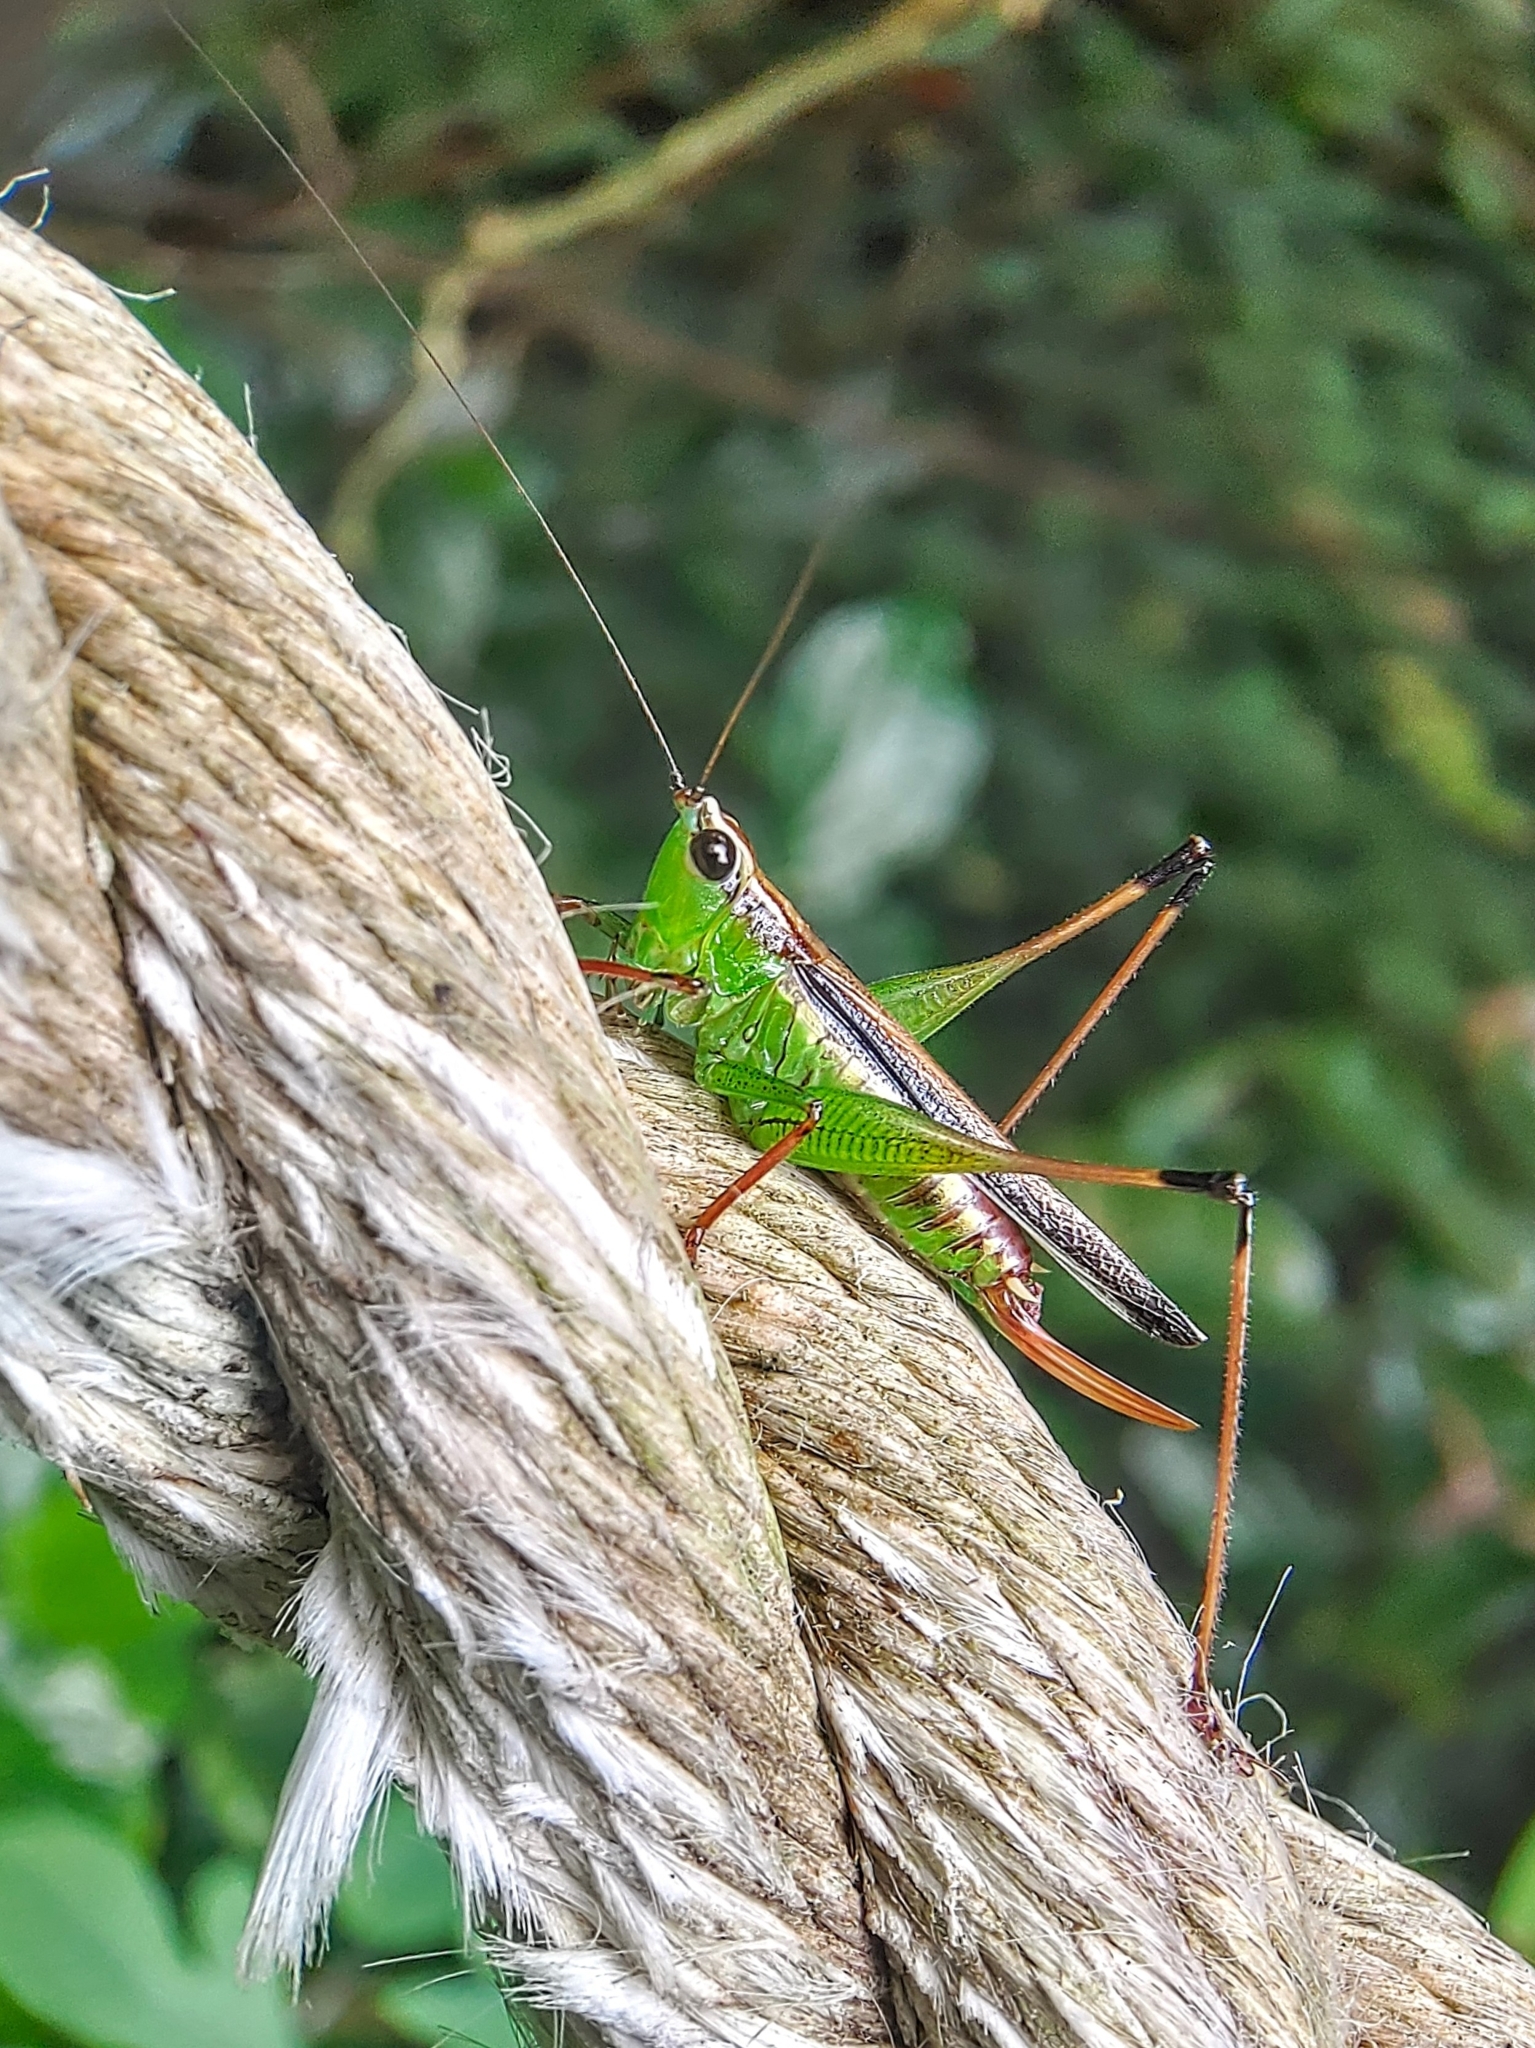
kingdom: Animalia
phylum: Arthropoda
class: Insecta
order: Orthoptera
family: Tettigoniidae
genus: Conocephalus
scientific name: Conocephalus melaenus
